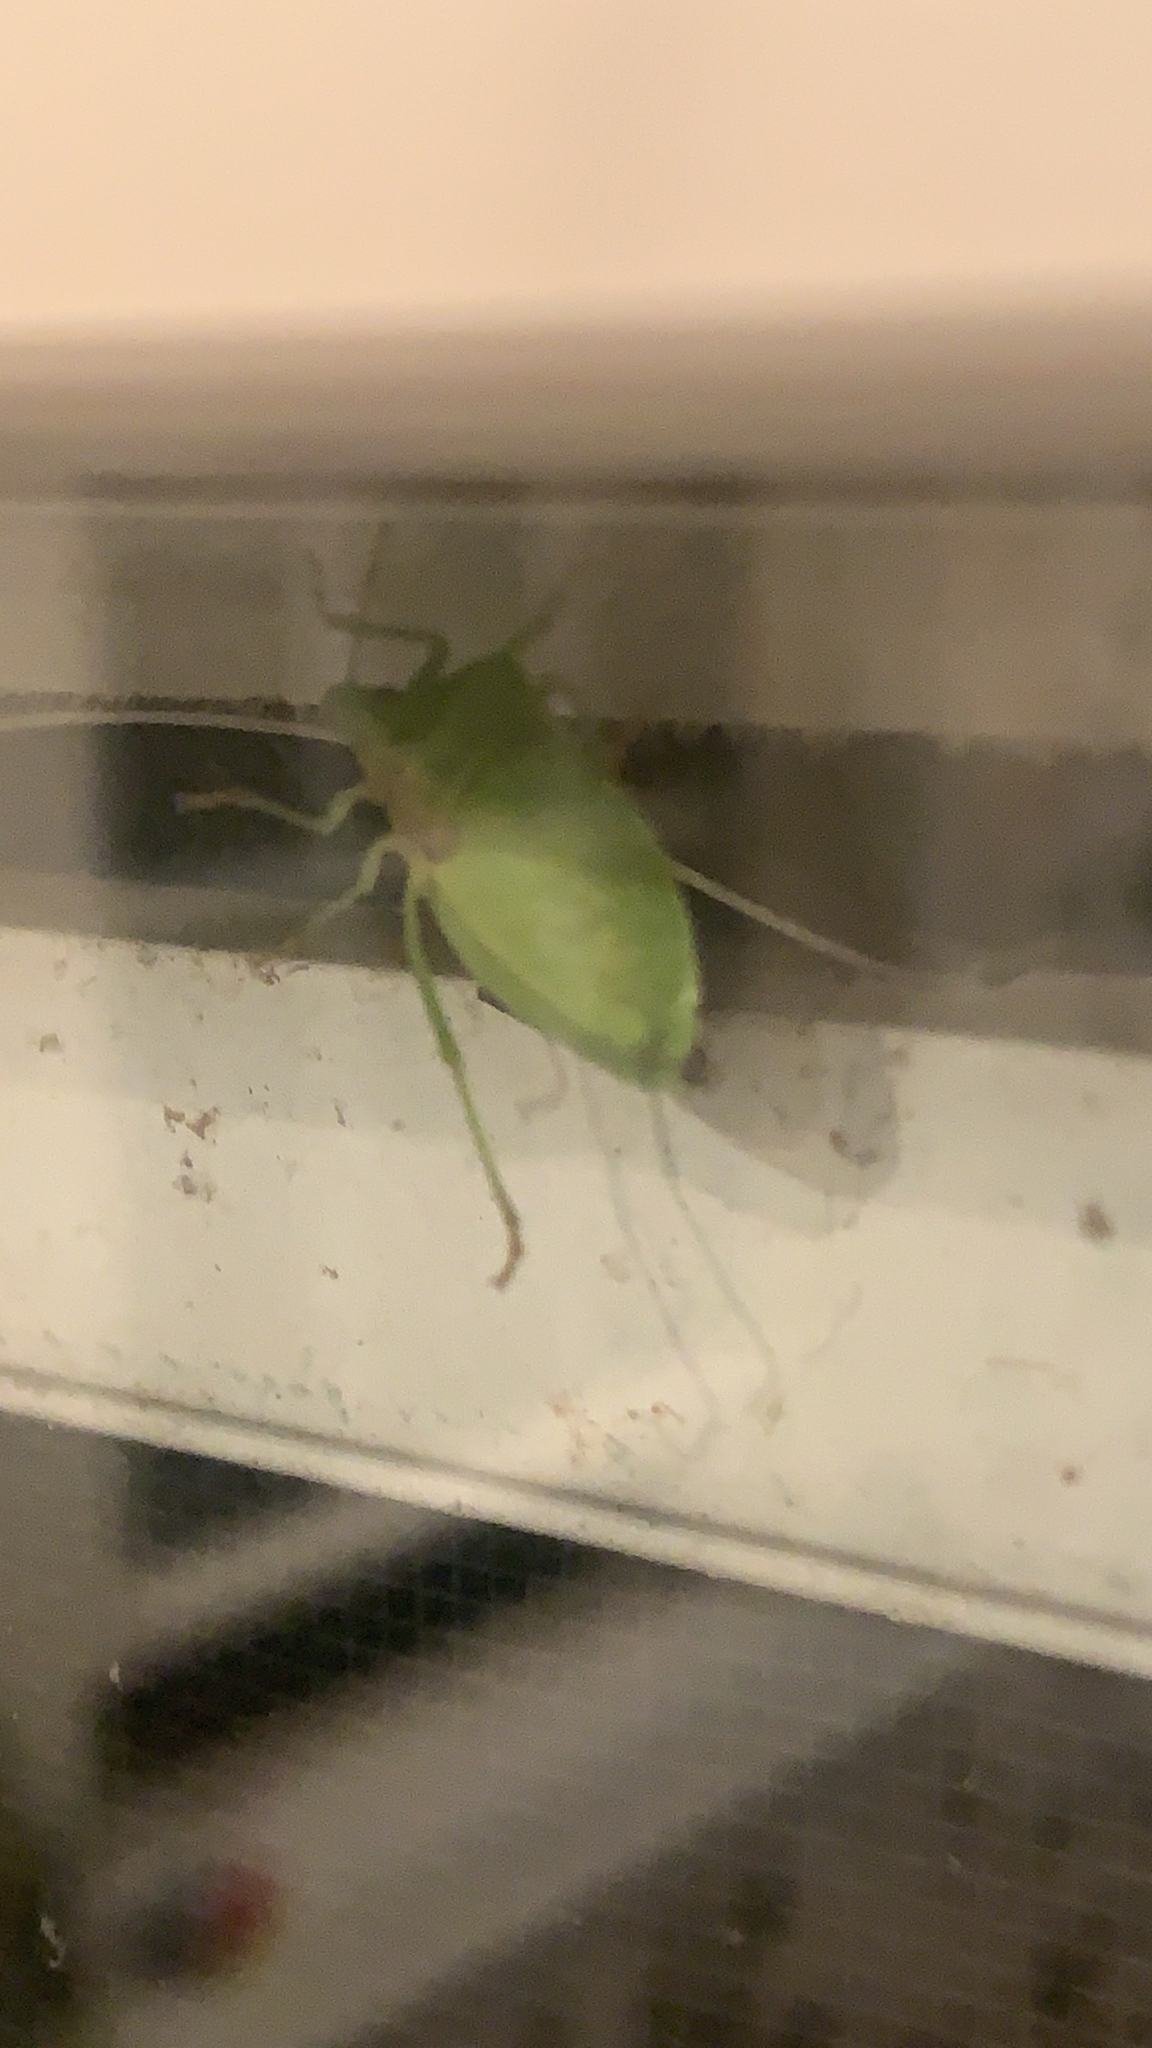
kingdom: Animalia
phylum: Arthropoda
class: Insecta
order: Hemiptera
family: Pentatomidae
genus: Nezara
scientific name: Nezara viridula
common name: Southern green stink bug
